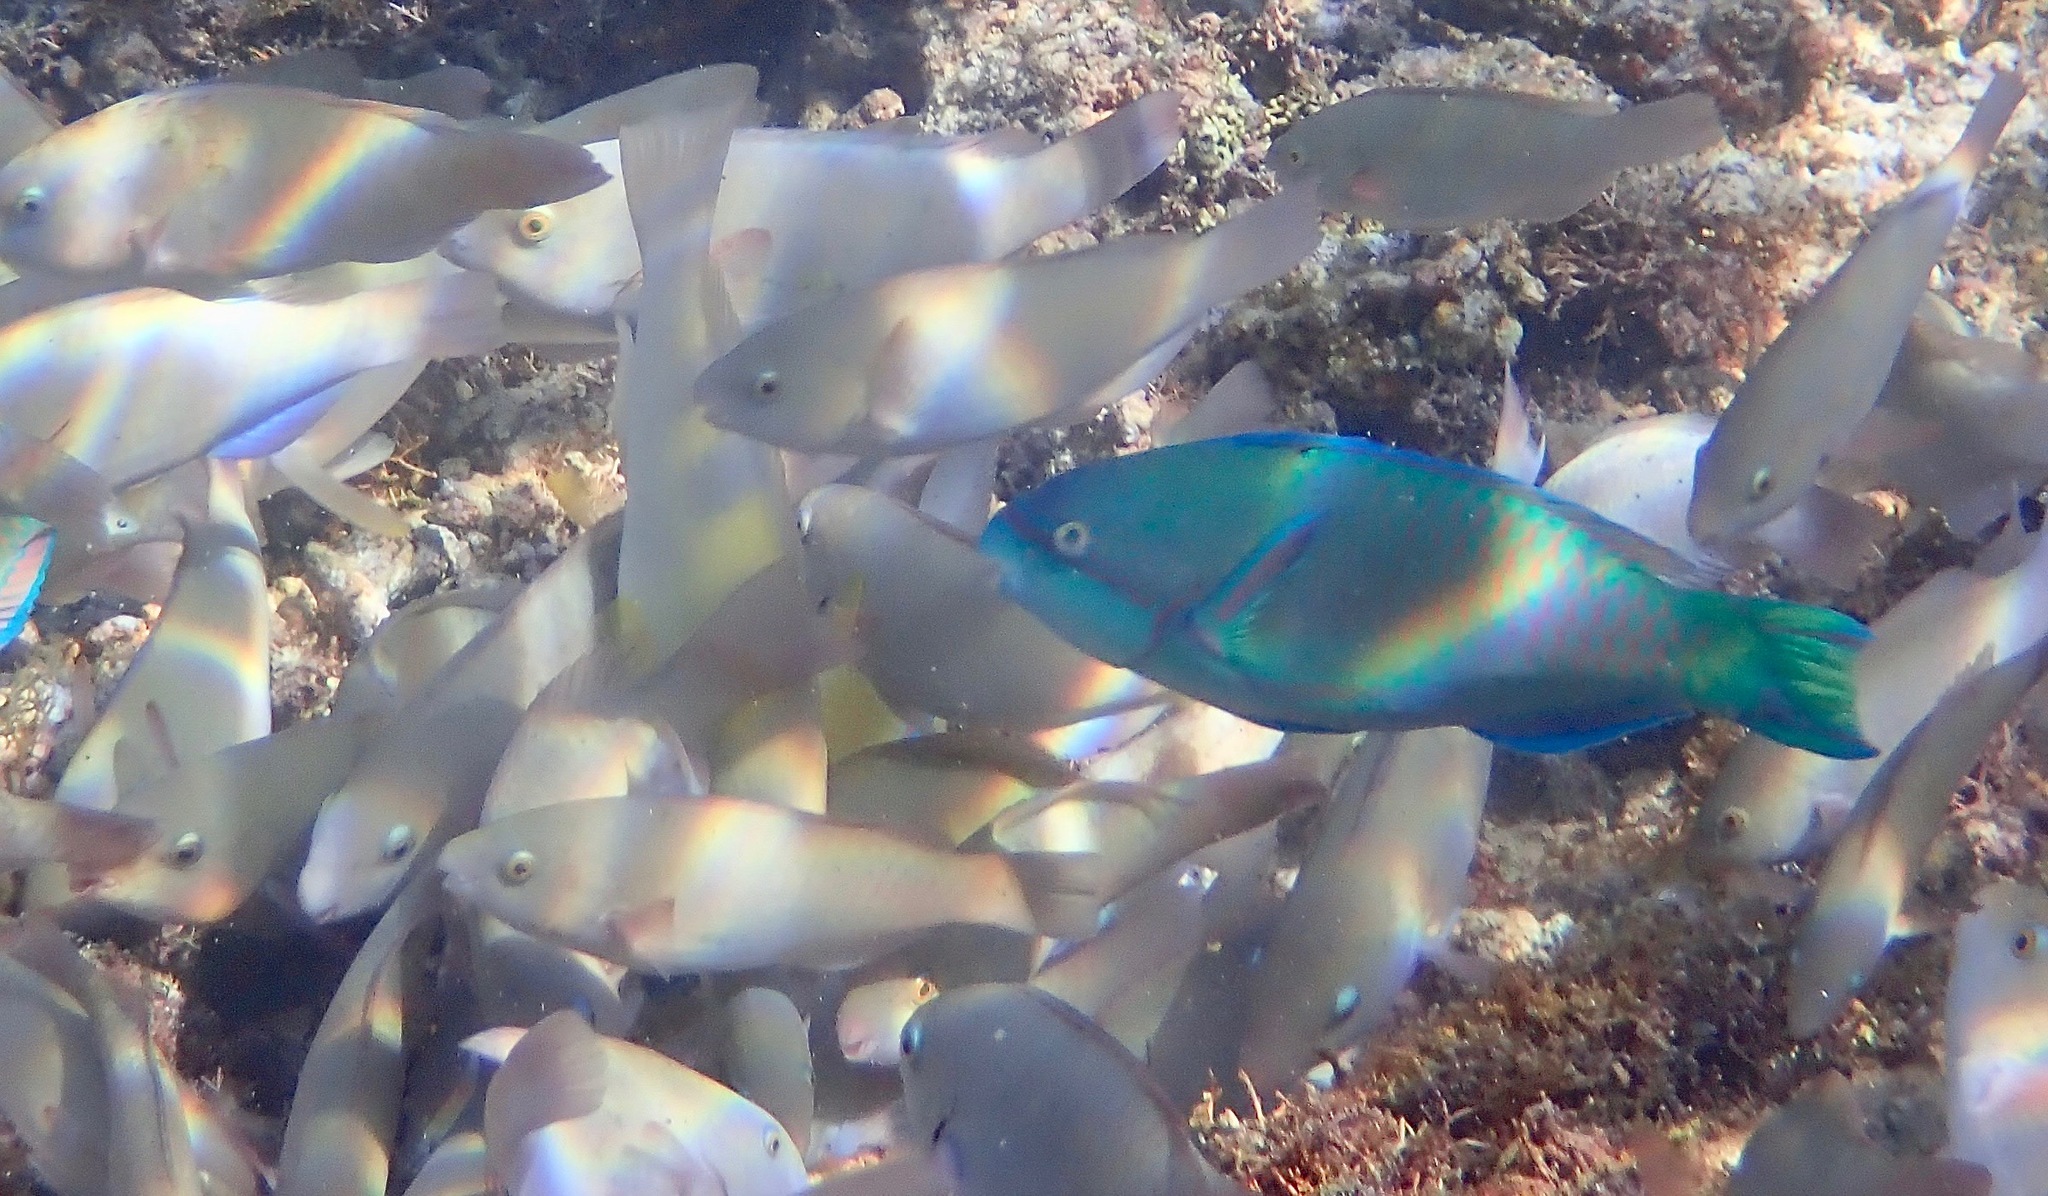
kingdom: Animalia
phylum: Chordata
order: Perciformes
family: Scaridae
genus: Scarus
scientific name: Scarus globiceps
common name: Globehead parrotfish
